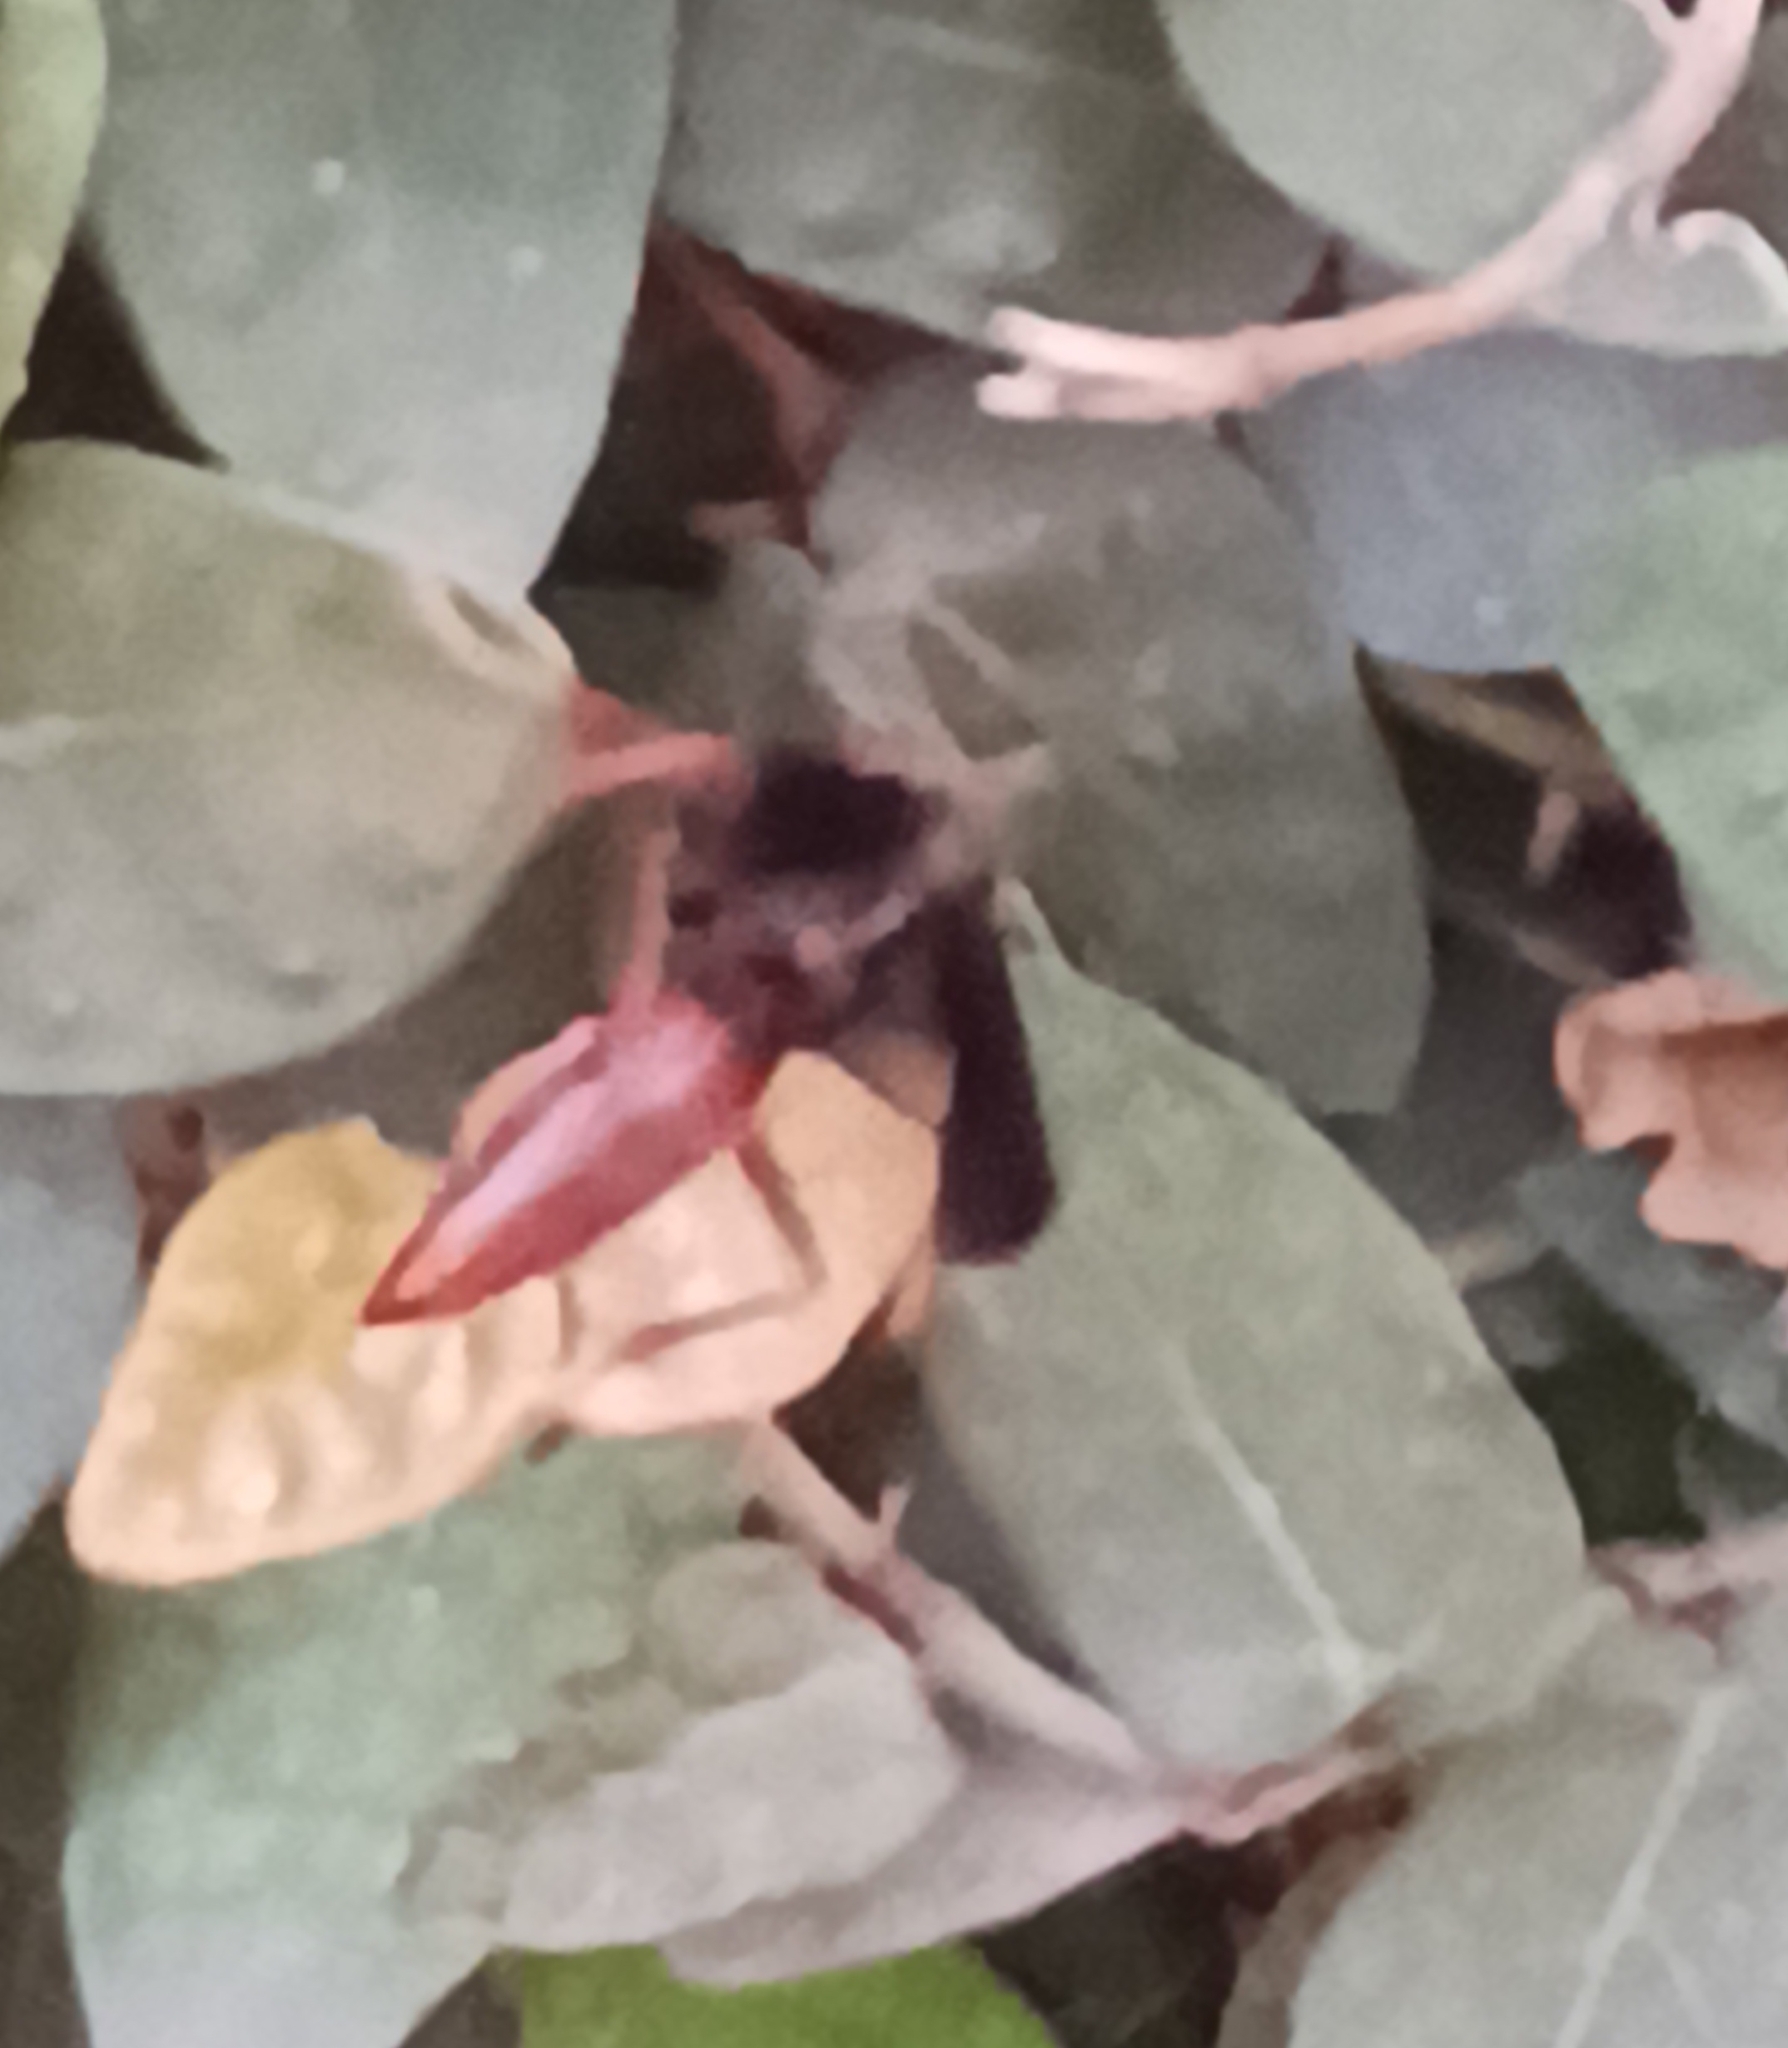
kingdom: Animalia
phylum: Arthropoda
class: Insecta
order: Hymenoptera
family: Eumenidae
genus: Polistes
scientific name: Polistes lanio
